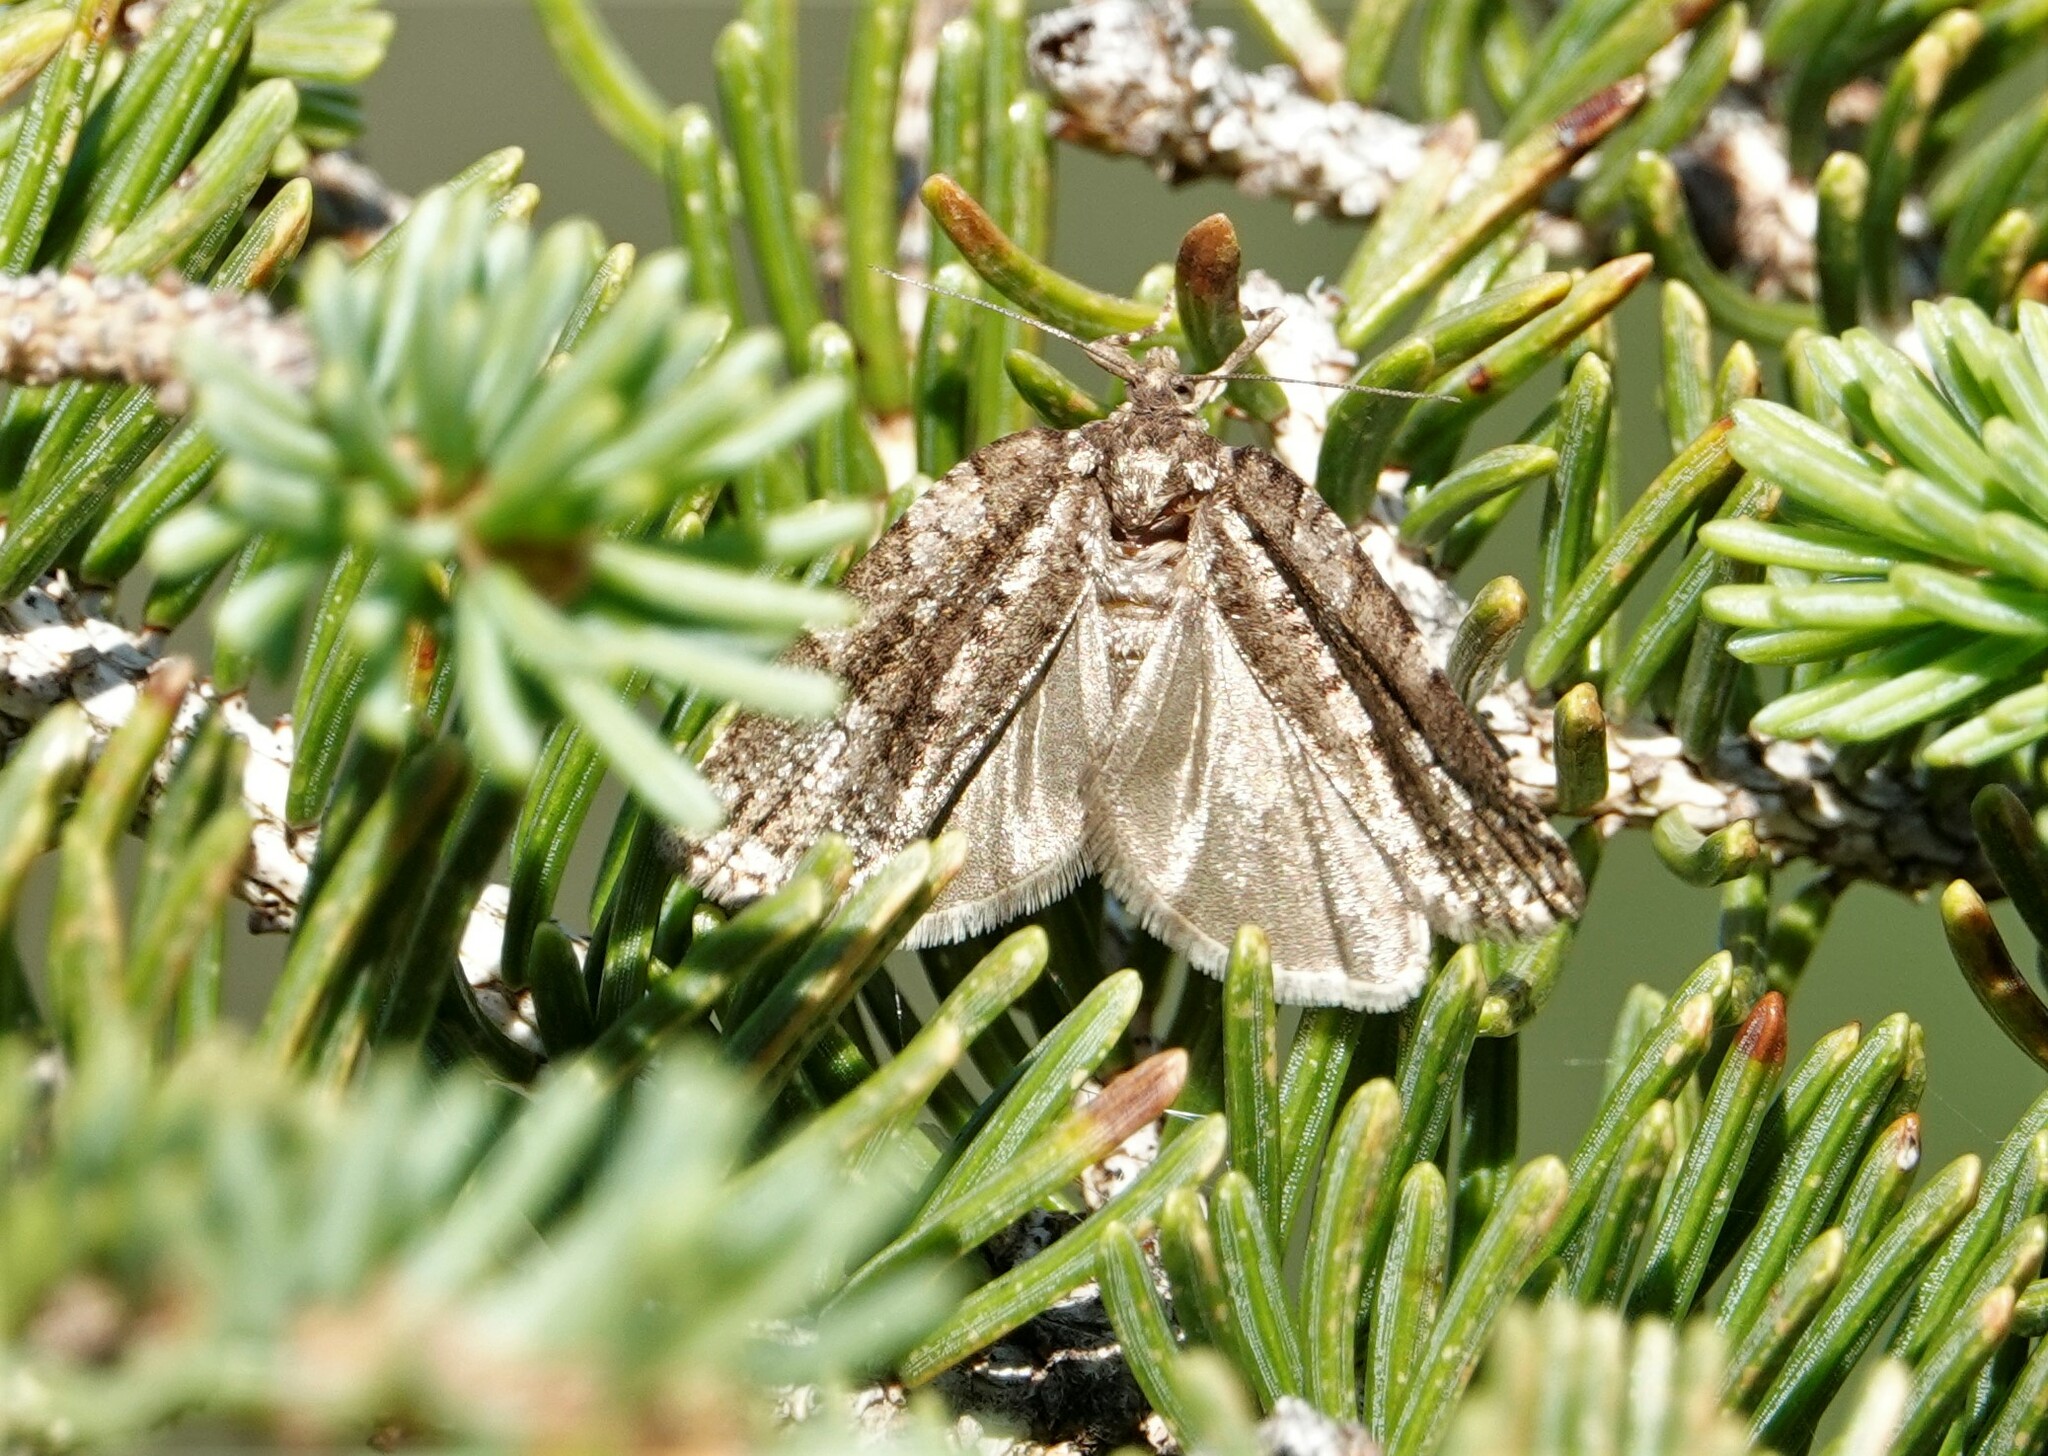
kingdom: Animalia
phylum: Arthropoda
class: Insecta
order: Lepidoptera
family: Tortricidae
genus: Choristoneura
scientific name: Choristoneura fumiferana
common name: Spruce budworm
